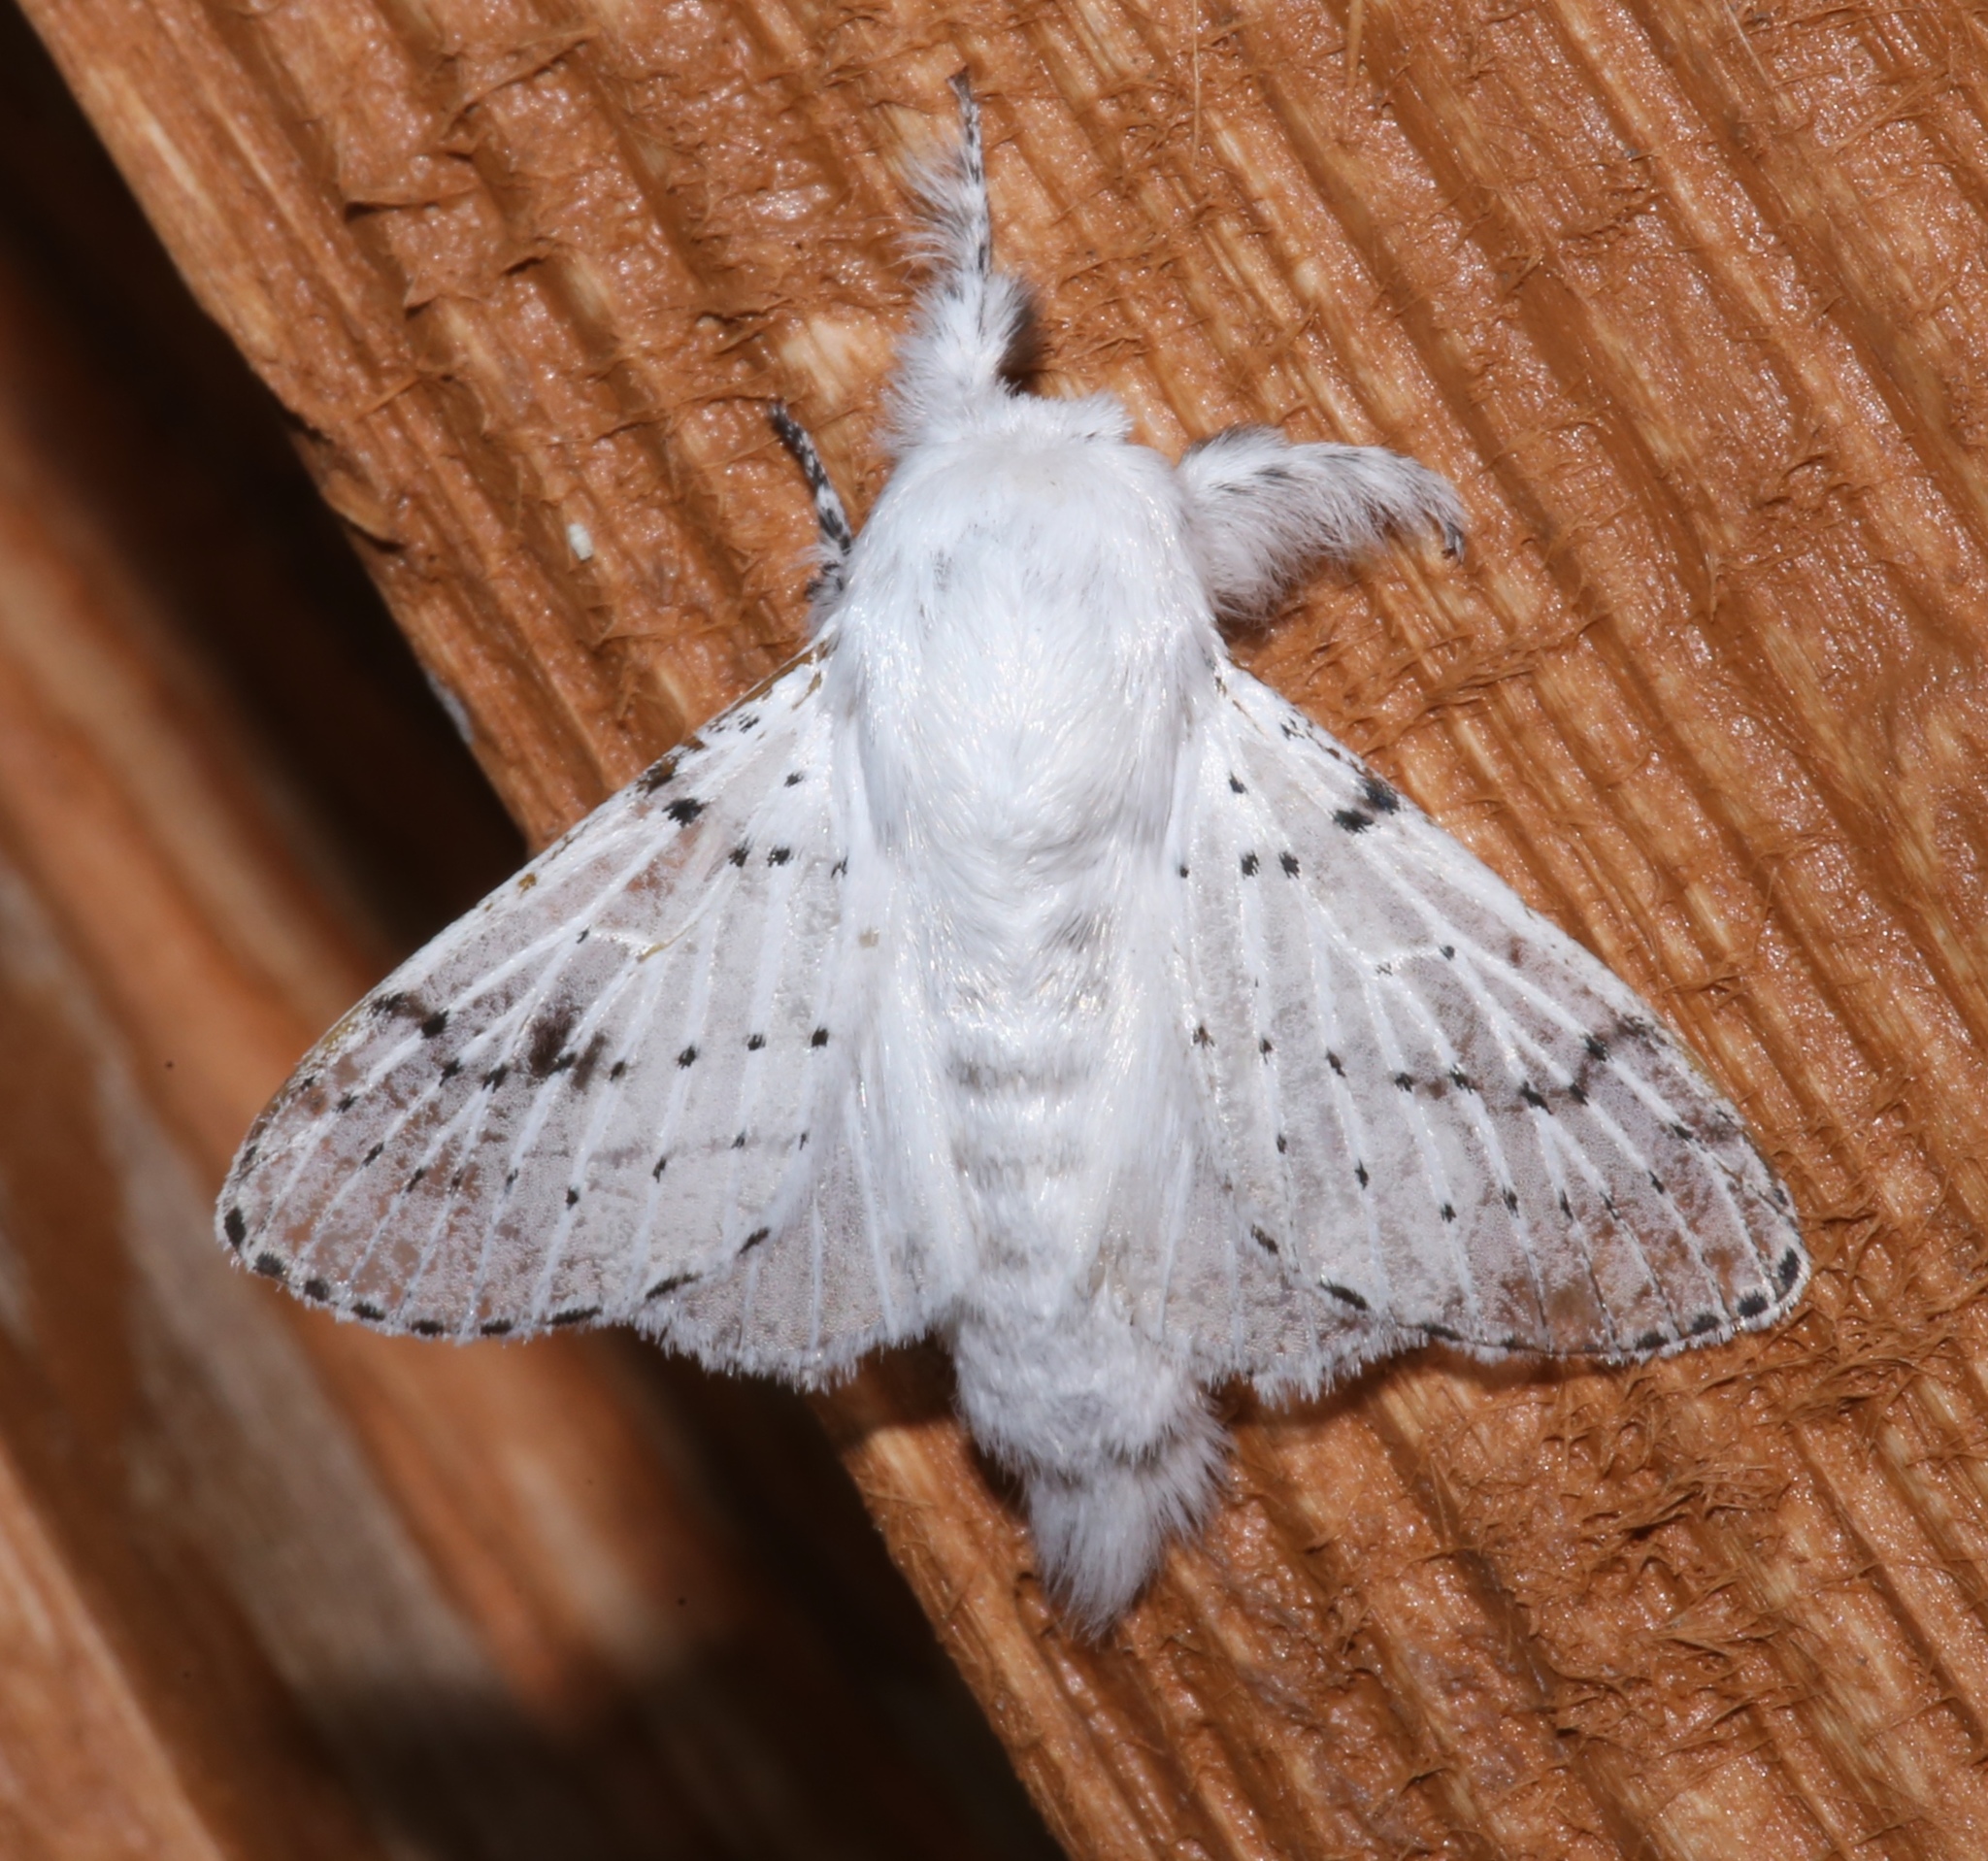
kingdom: Animalia
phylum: Arthropoda
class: Insecta
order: Lepidoptera
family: Lasiocampidae
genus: Artace
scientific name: Artace cribrarius
